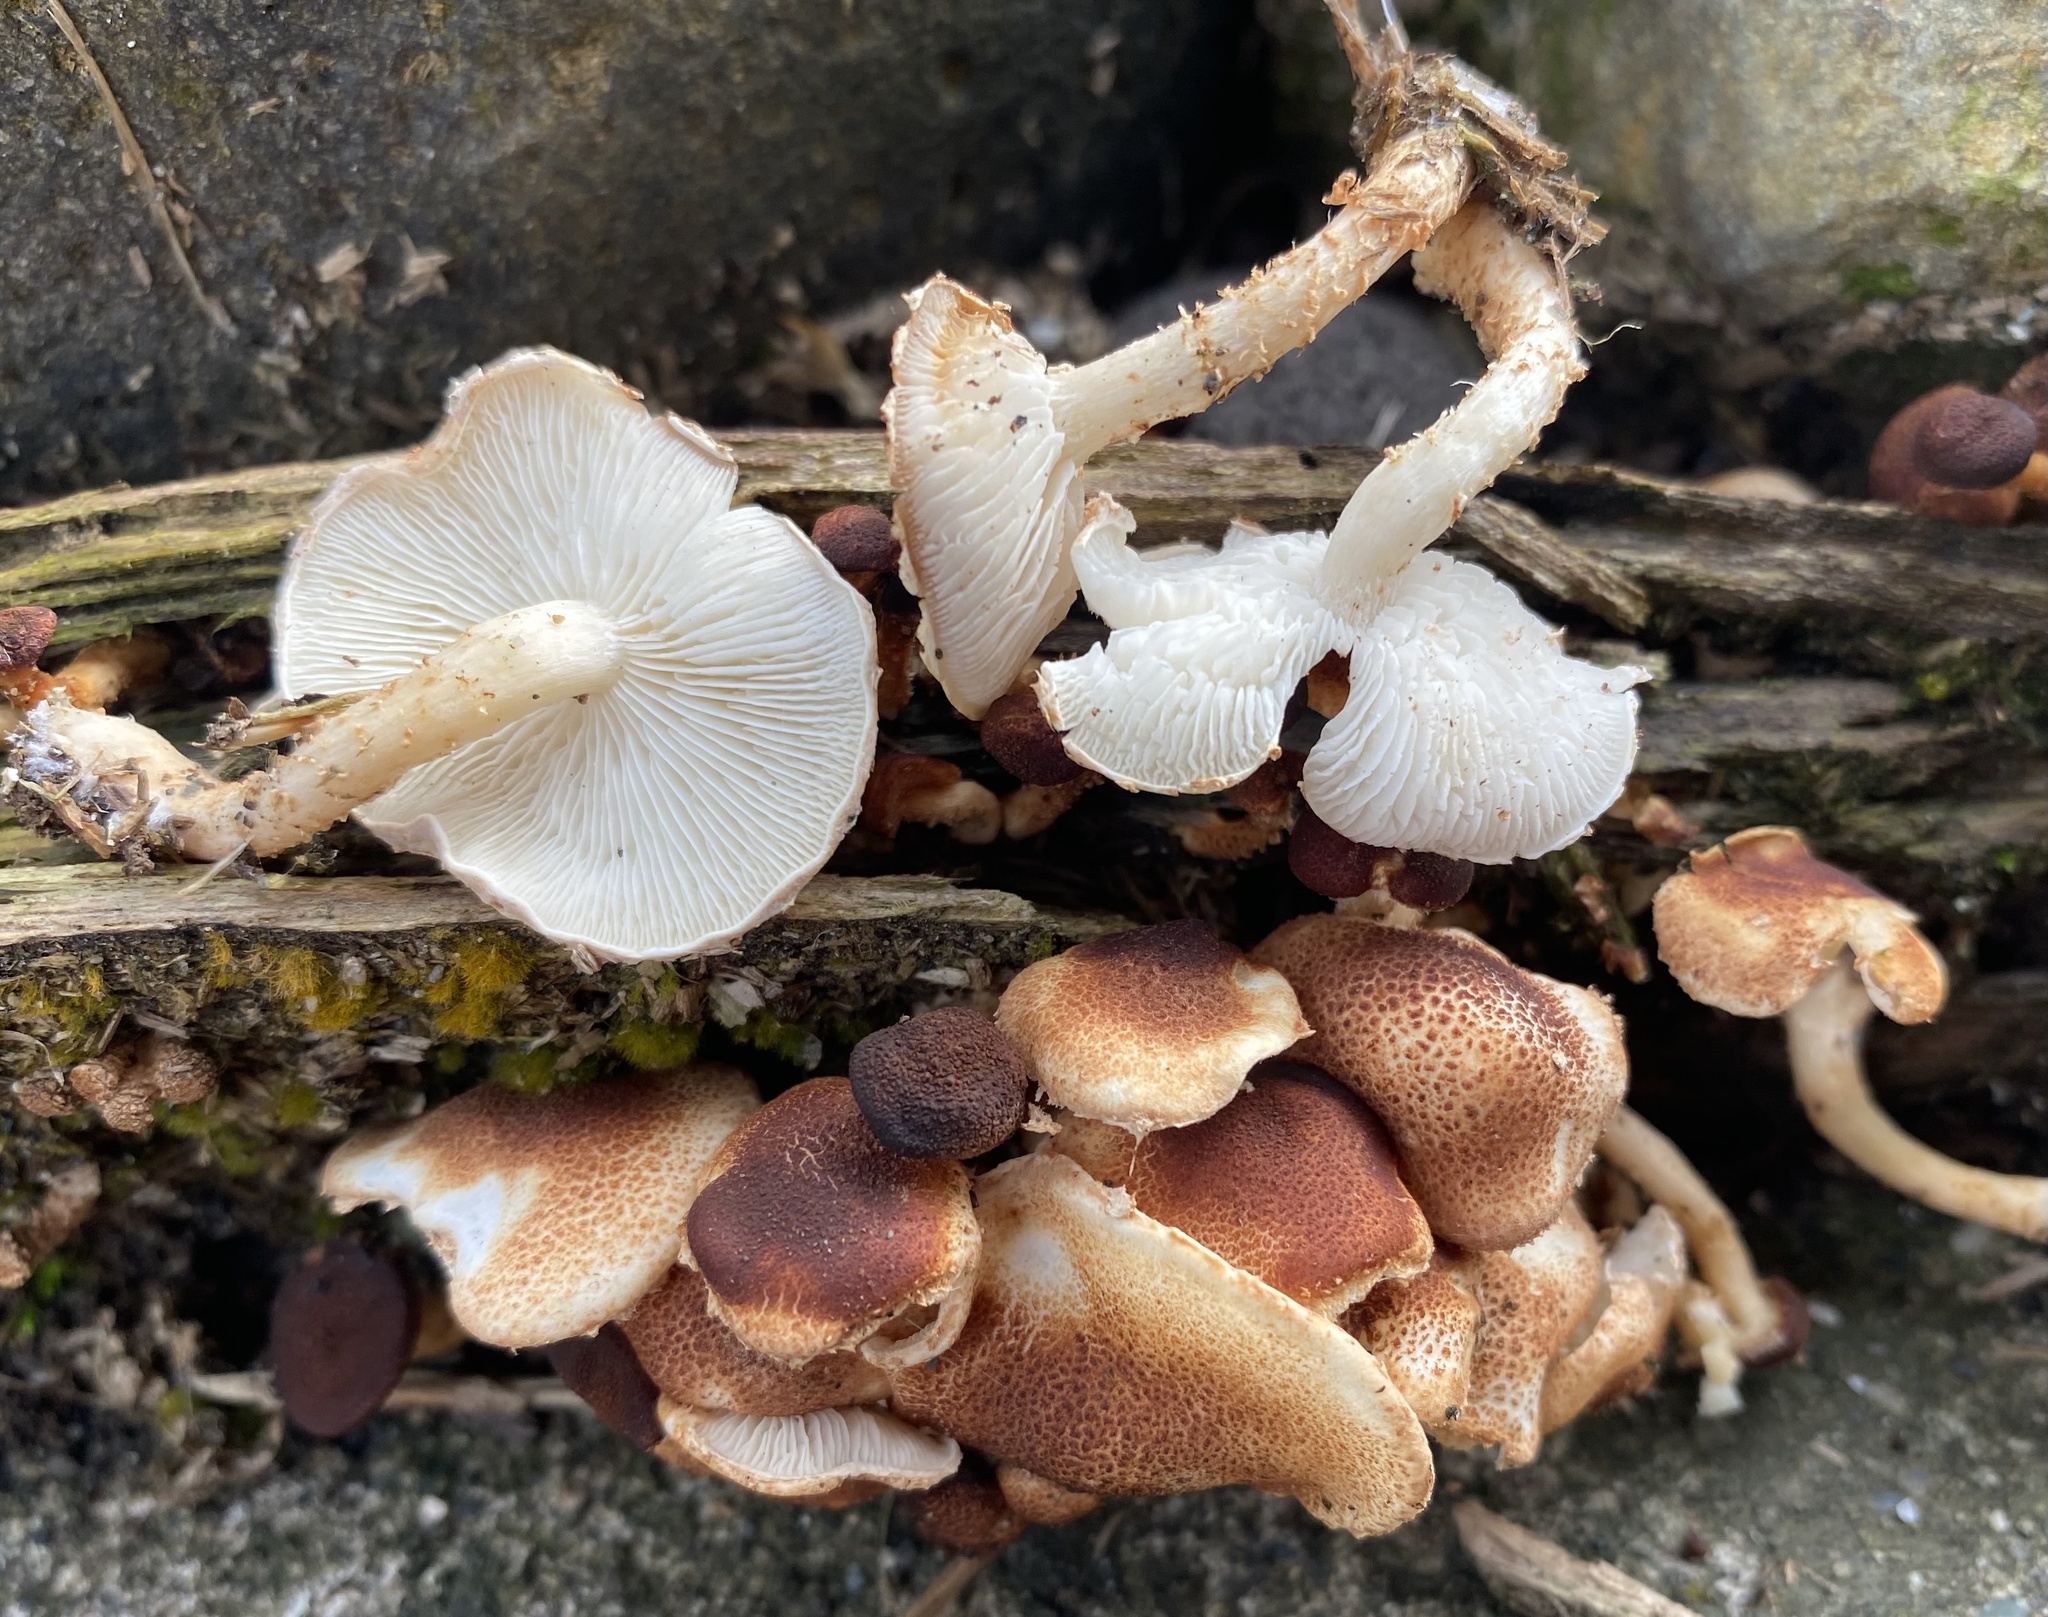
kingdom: Fungi
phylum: Basidiomycota
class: Agaricomycetes
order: Agaricales
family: Agaricaceae
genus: Ripartitella
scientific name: Ripartitella brasiliensis
